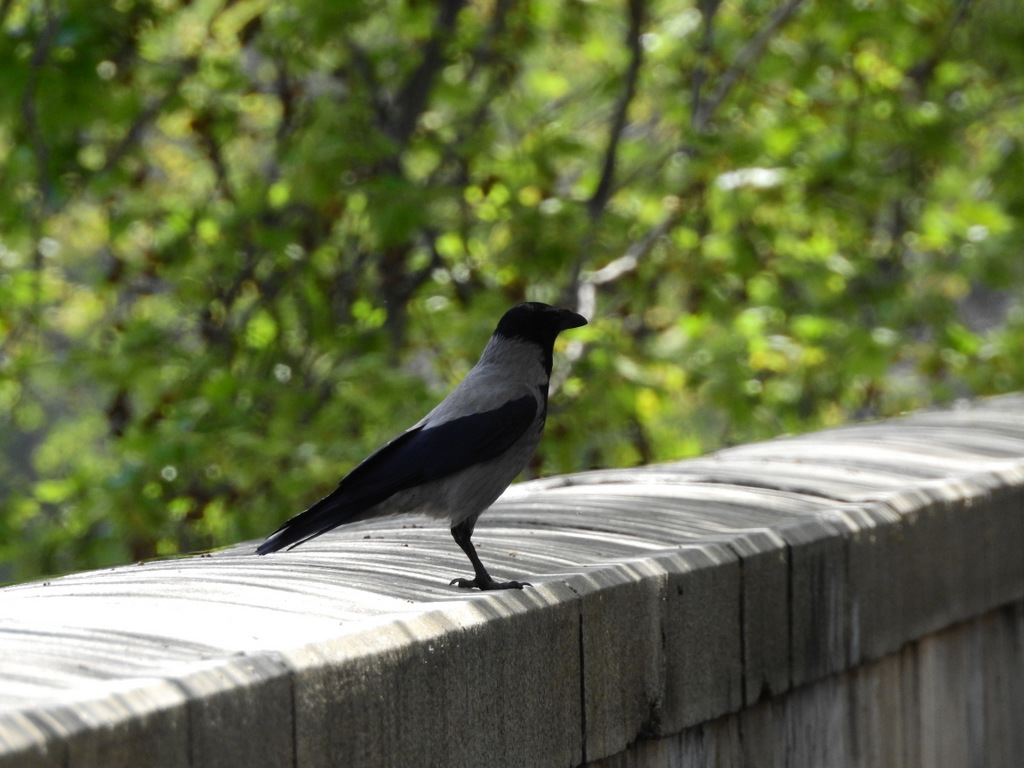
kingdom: Animalia
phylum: Chordata
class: Aves
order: Passeriformes
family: Corvidae
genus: Corvus
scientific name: Corvus cornix
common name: Hooded crow
